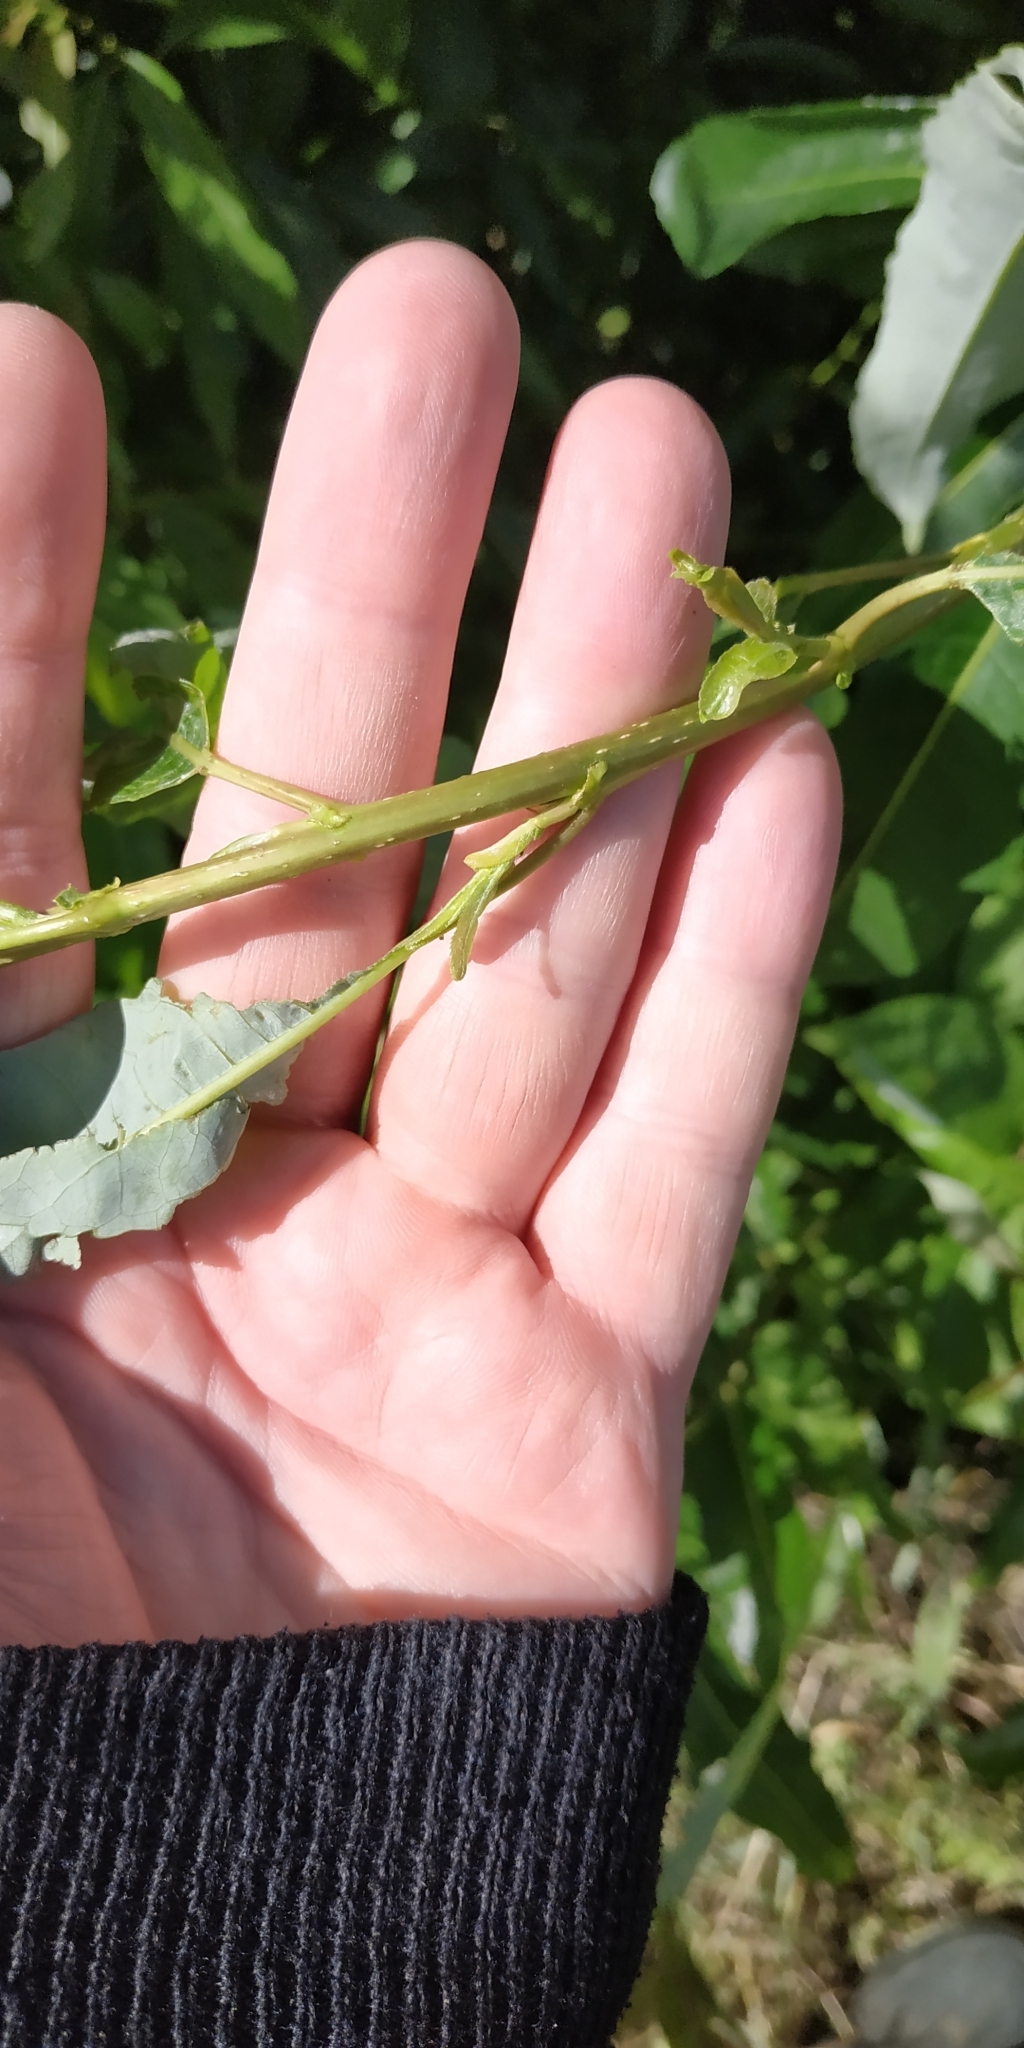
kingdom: Plantae
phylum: Tracheophyta
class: Magnoliopsida
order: Malpighiales
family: Salicaceae
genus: Salix
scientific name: Salix triandra
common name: Almond willow
